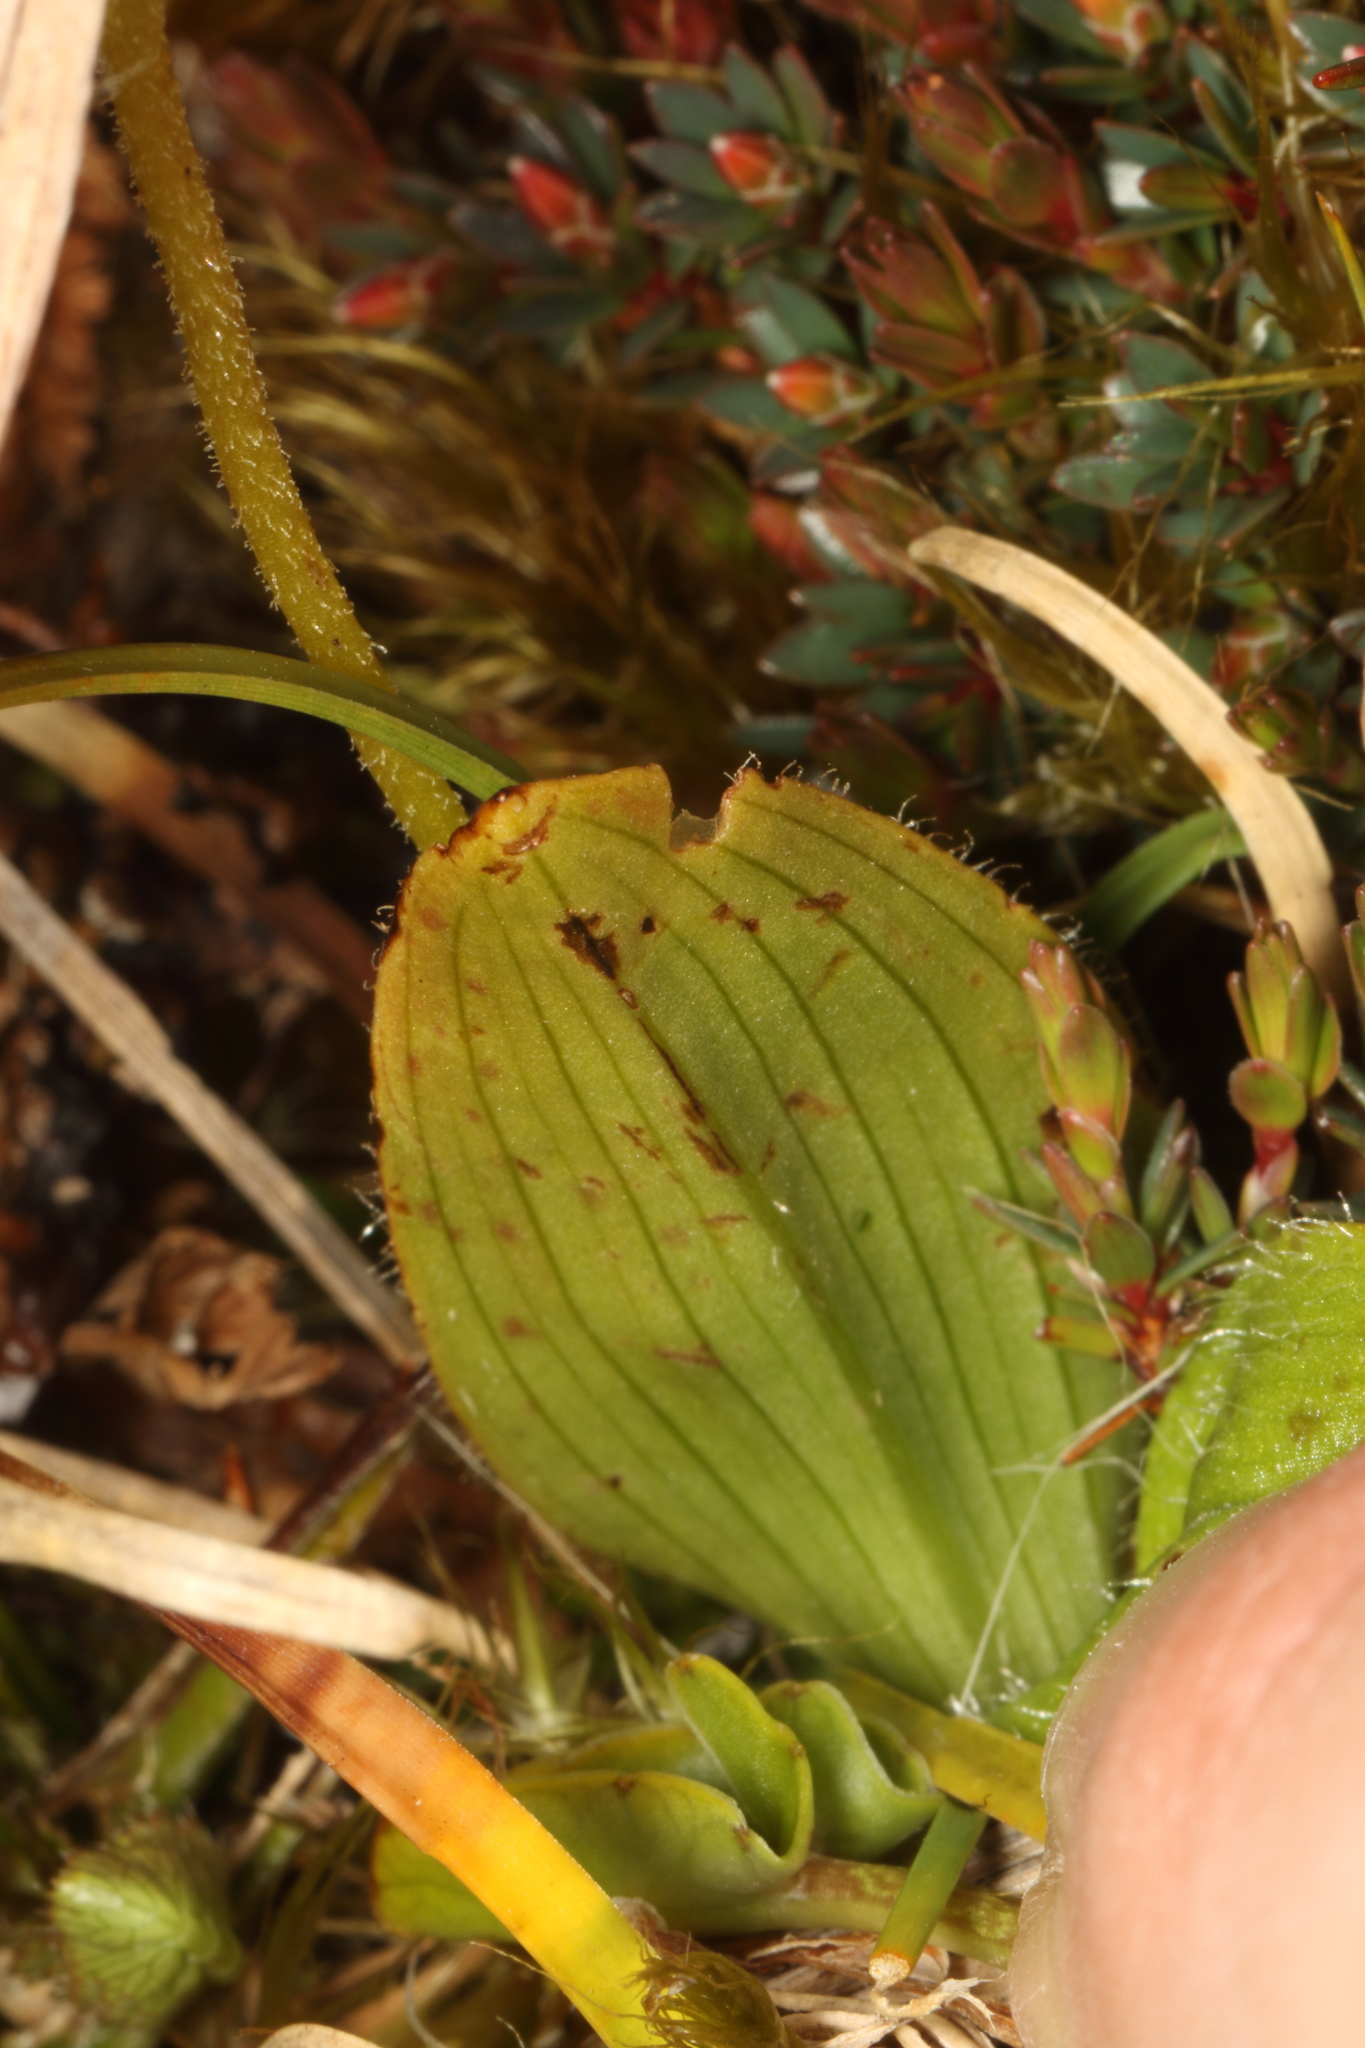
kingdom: Plantae
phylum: Tracheophyta
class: Liliopsida
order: Asparagales
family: Orchidaceae
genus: Aporostylis
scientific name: Aporostylis bifolia
